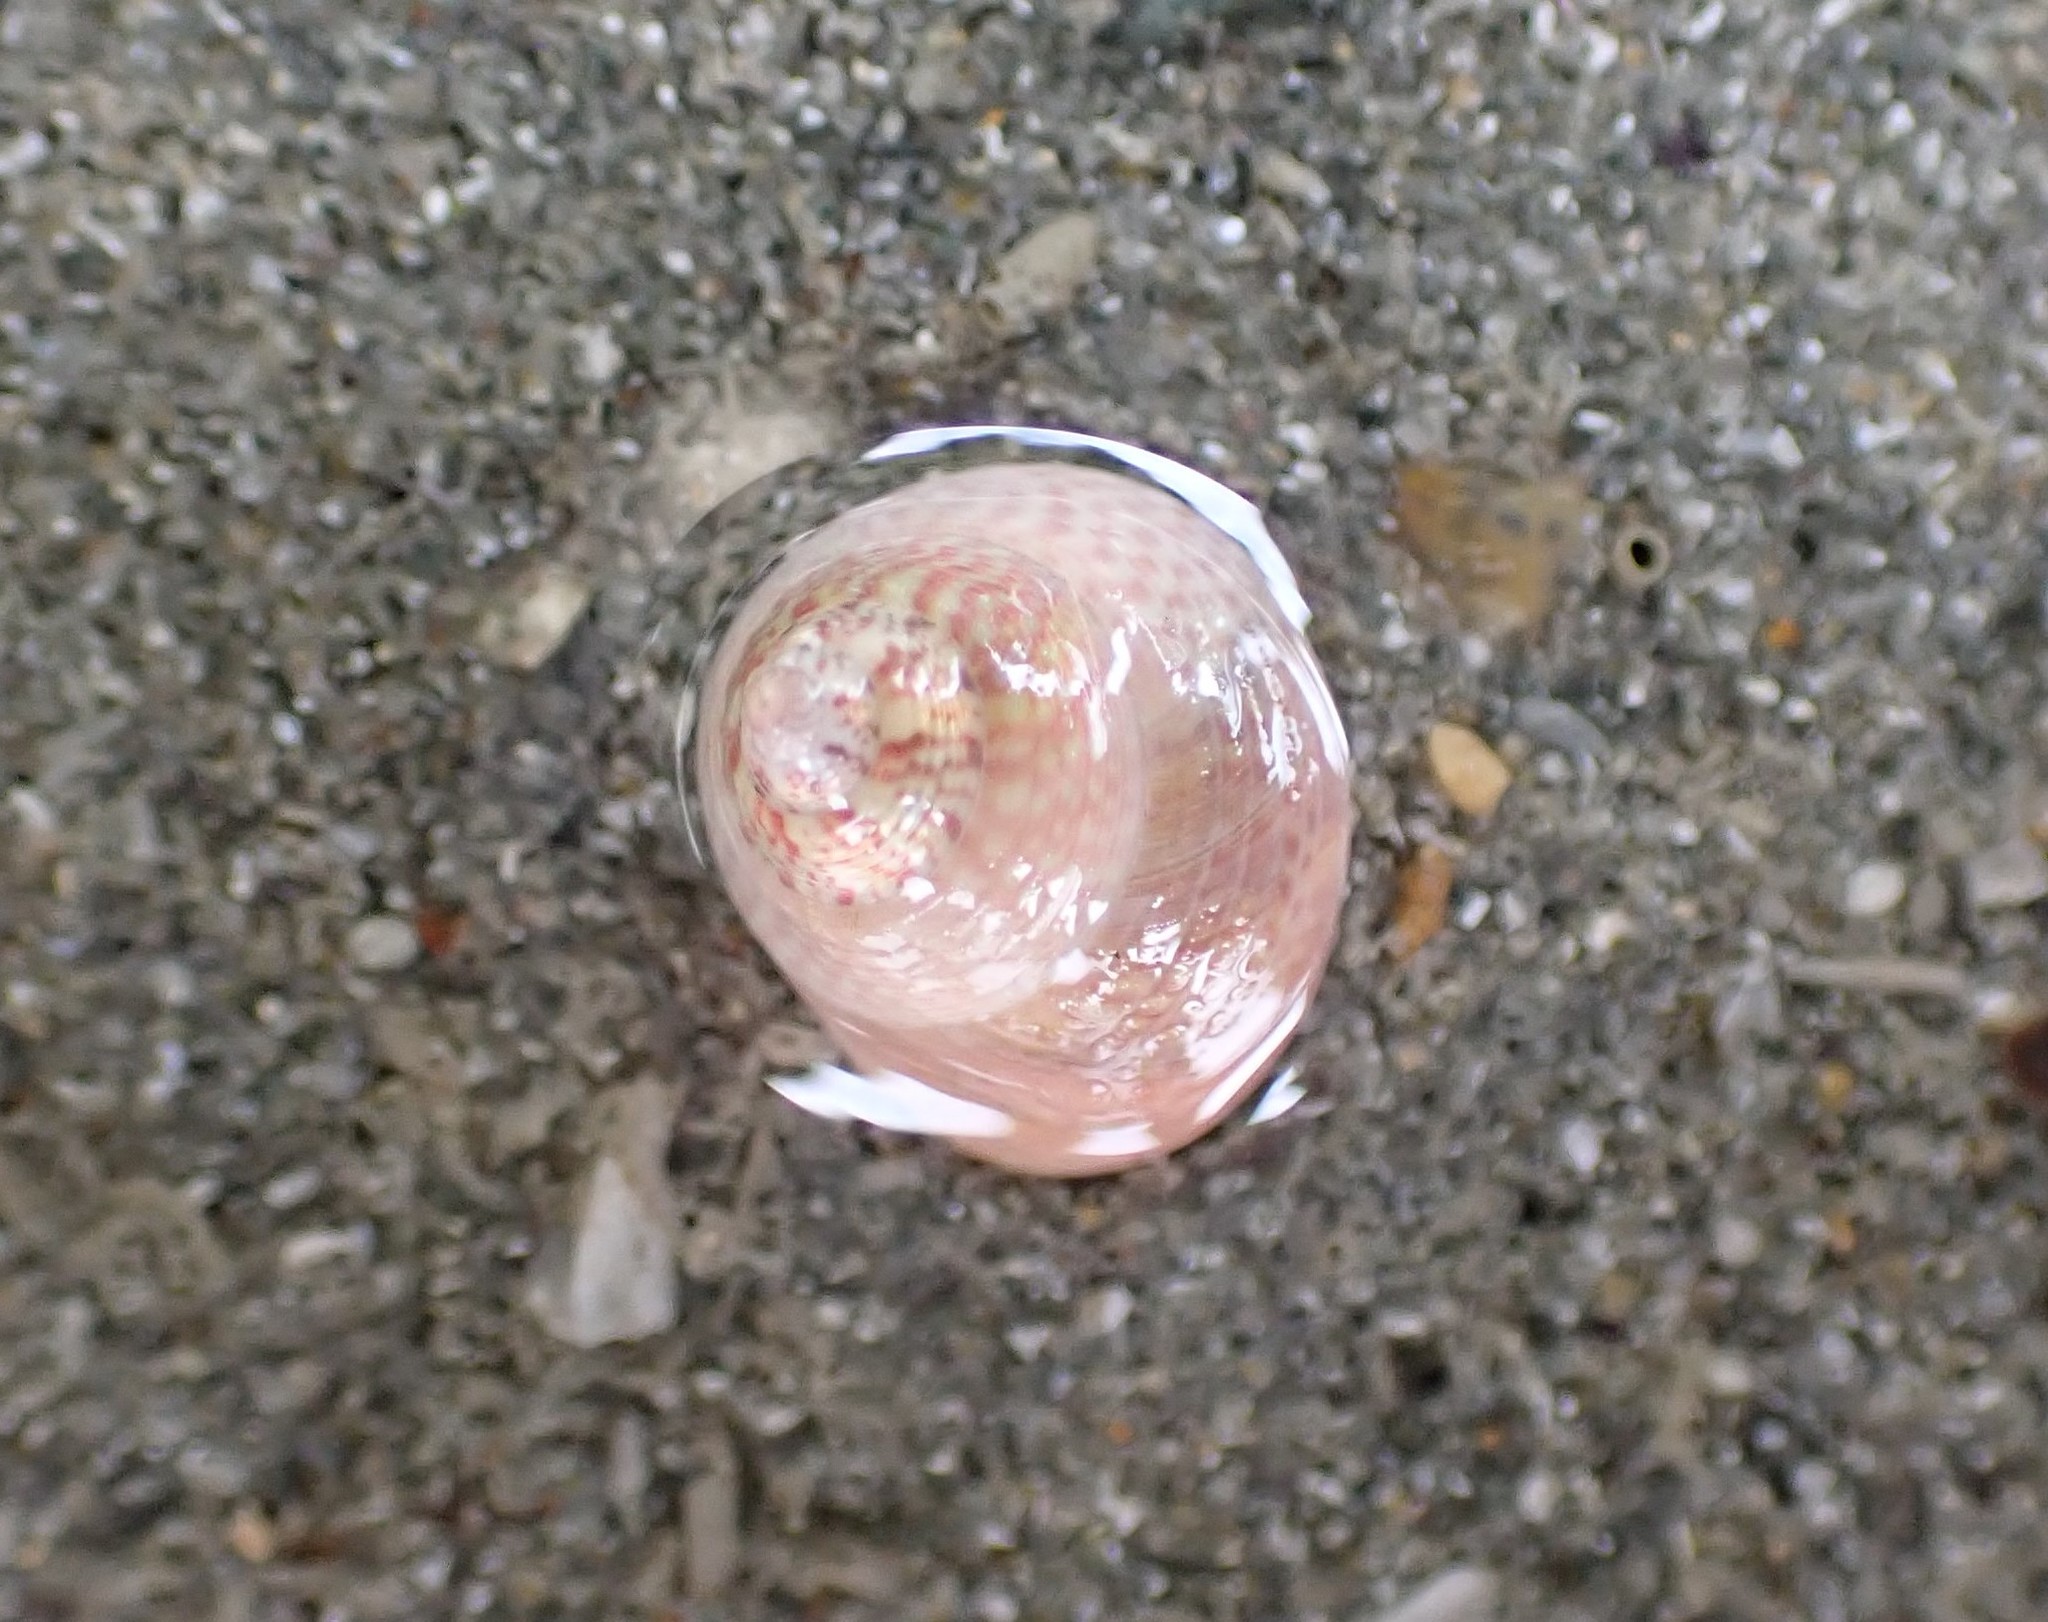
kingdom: Animalia
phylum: Mollusca
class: Gastropoda
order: Trochida
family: Trochidae
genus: Micrelenchus
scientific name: Micrelenchus sanguineus
